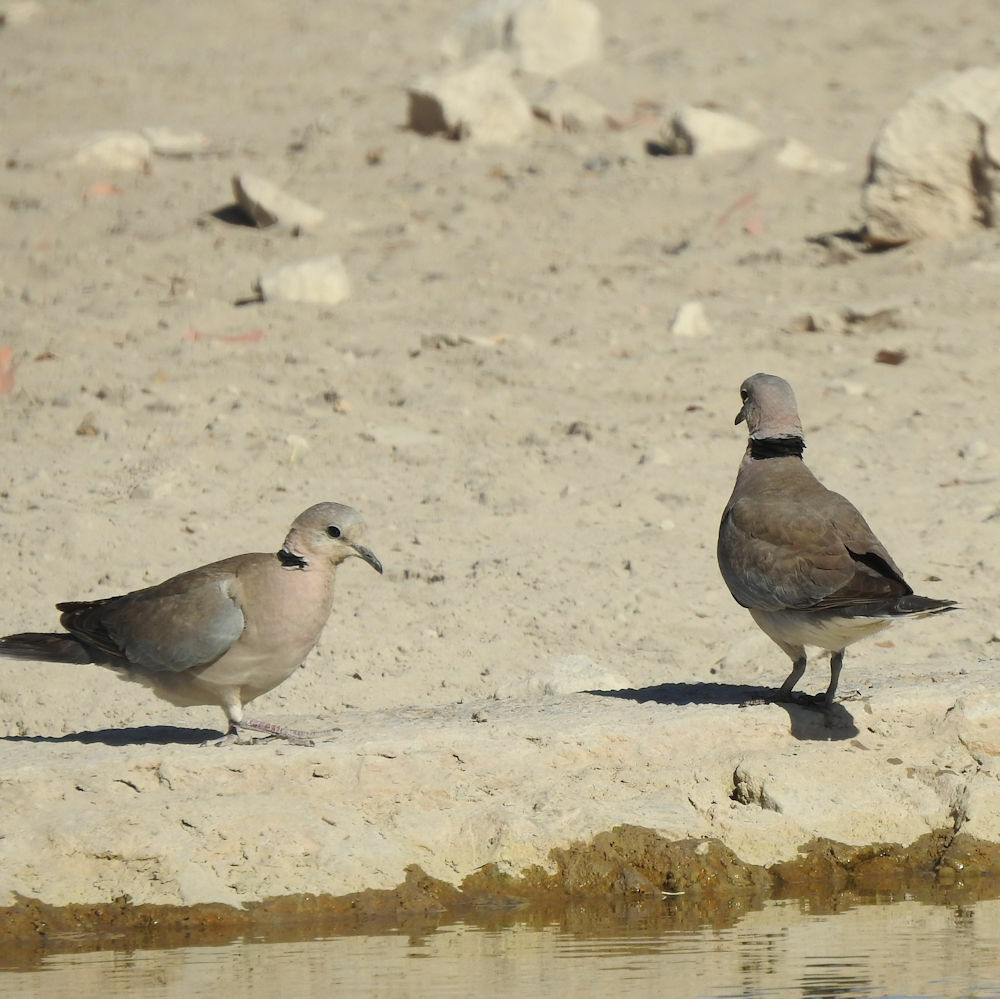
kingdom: Animalia
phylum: Chordata
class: Aves
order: Columbiformes
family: Columbidae
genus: Streptopelia
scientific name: Streptopelia capicola
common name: Ring-necked dove
